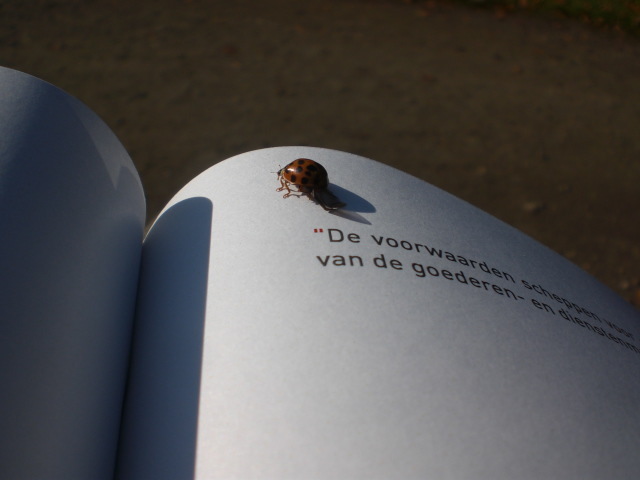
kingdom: Animalia
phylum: Arthropoda
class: Insecta
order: Coleoptera
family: Coccinellidae
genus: Harmonia
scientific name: Harmonia axyridis
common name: Harlequin ladybird
